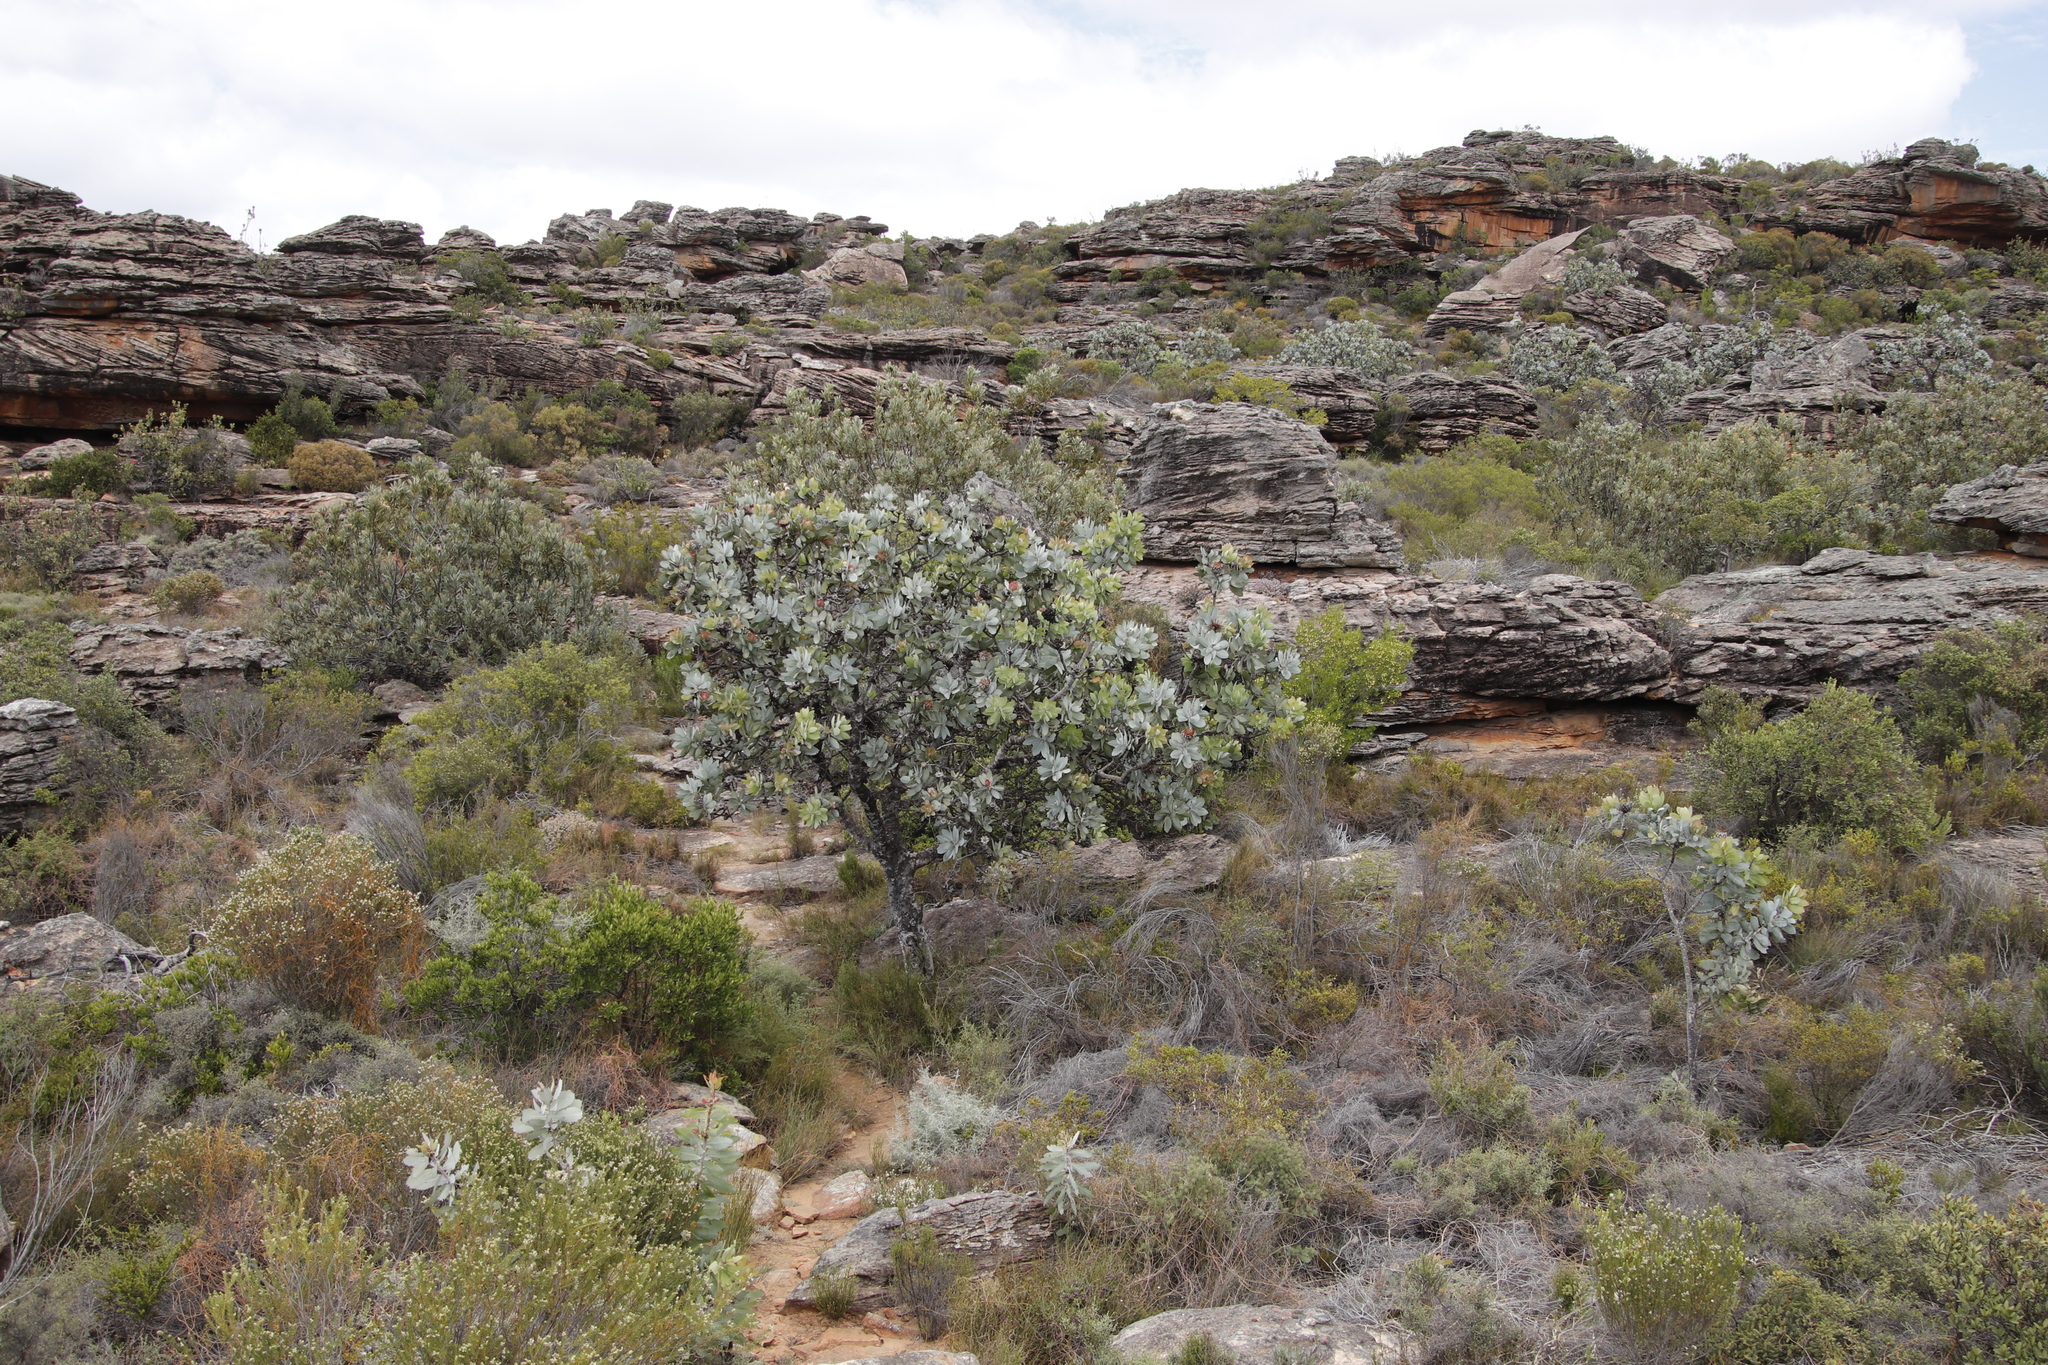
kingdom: Plantae
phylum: Tracheophyta
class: Magnoliopsida
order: Proteales
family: Proteaceae
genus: Protea
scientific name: Protea nitida
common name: Tree protea
